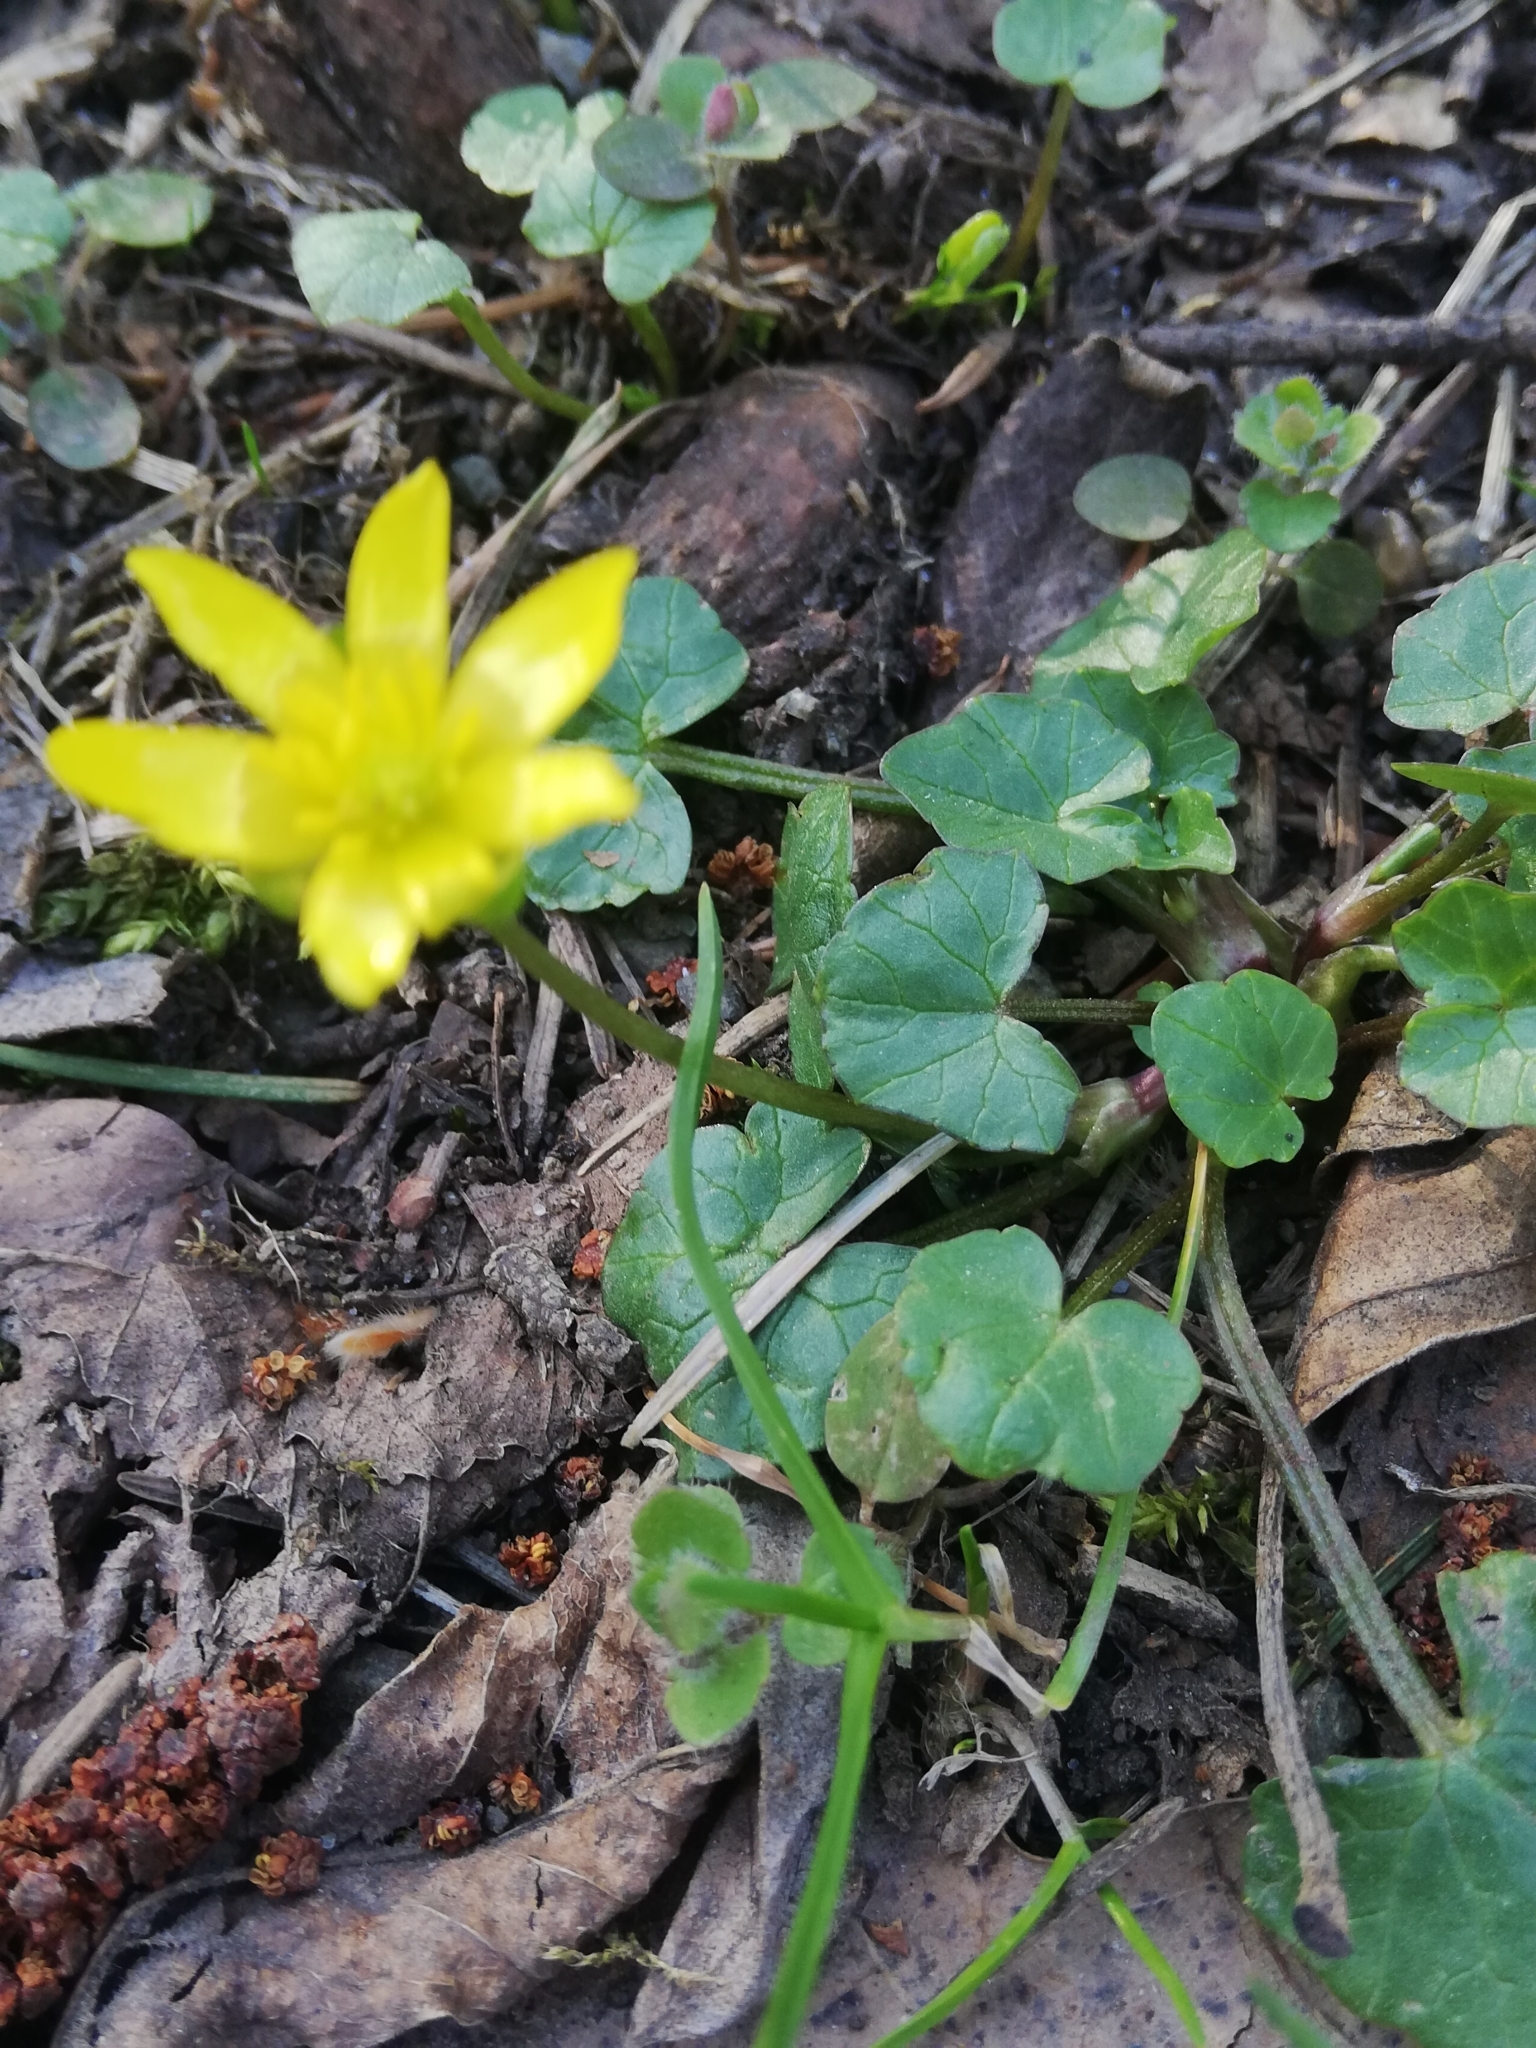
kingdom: Plantae
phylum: Tracheophyta
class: Magnoliopsida
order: Ranunculales
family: Ranunculaceae
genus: Ficaria
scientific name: Ficaria verna
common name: Lesser celandine
